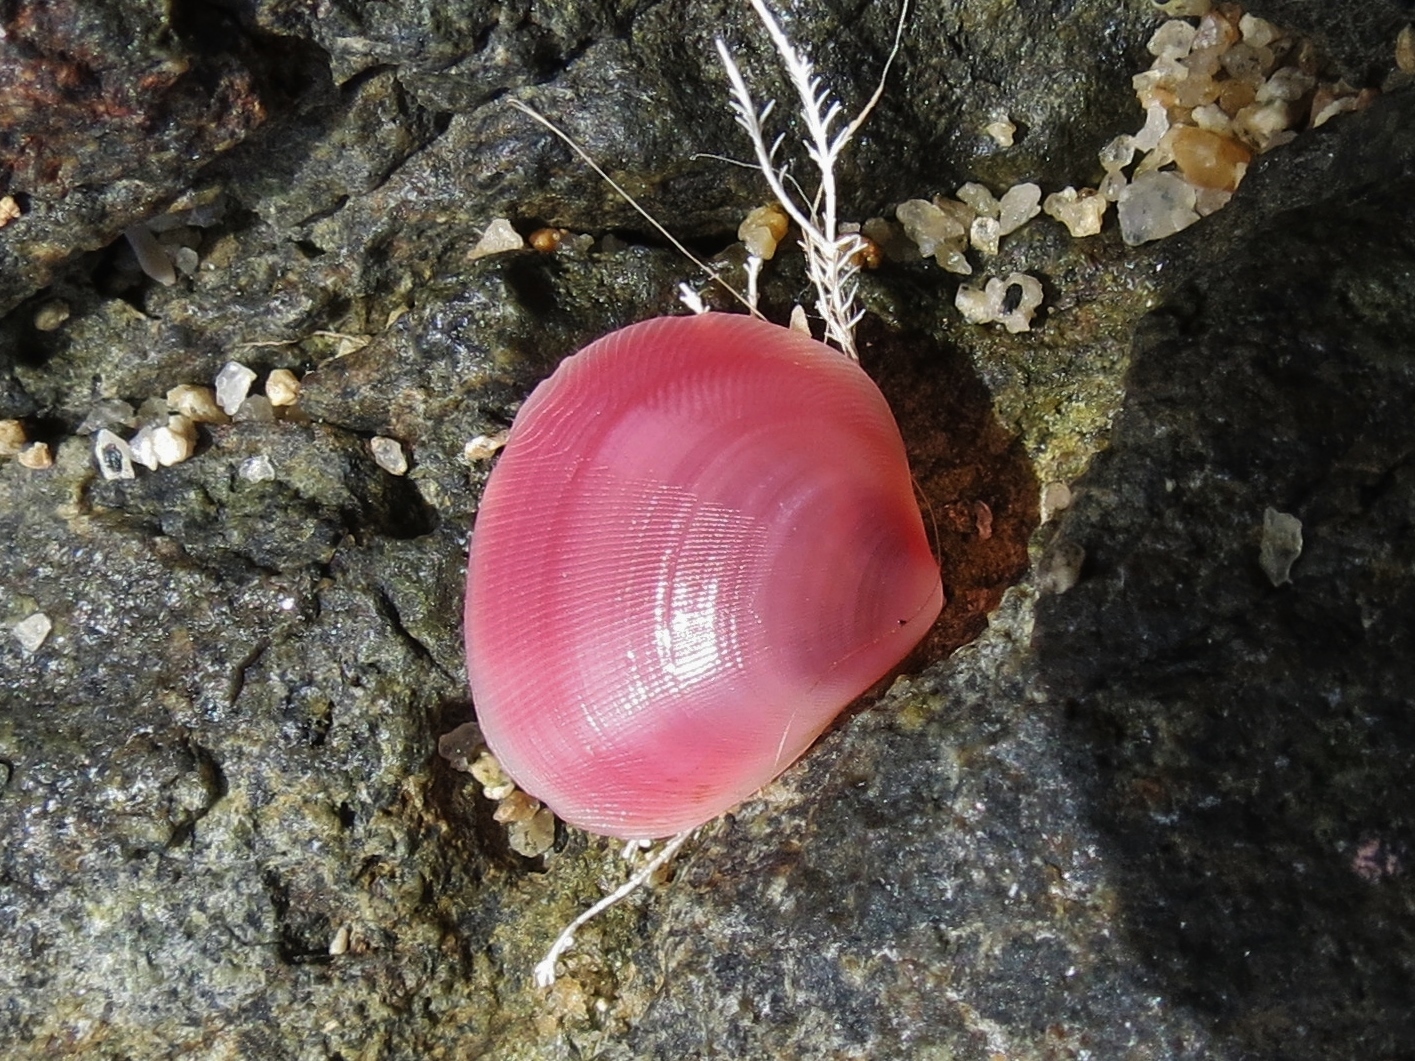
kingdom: Animalia
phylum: Mollusca
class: Bivalvia
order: Cardiida
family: Tellinidae
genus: Strigilla
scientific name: Strigilla carnaria
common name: Large strigilla
